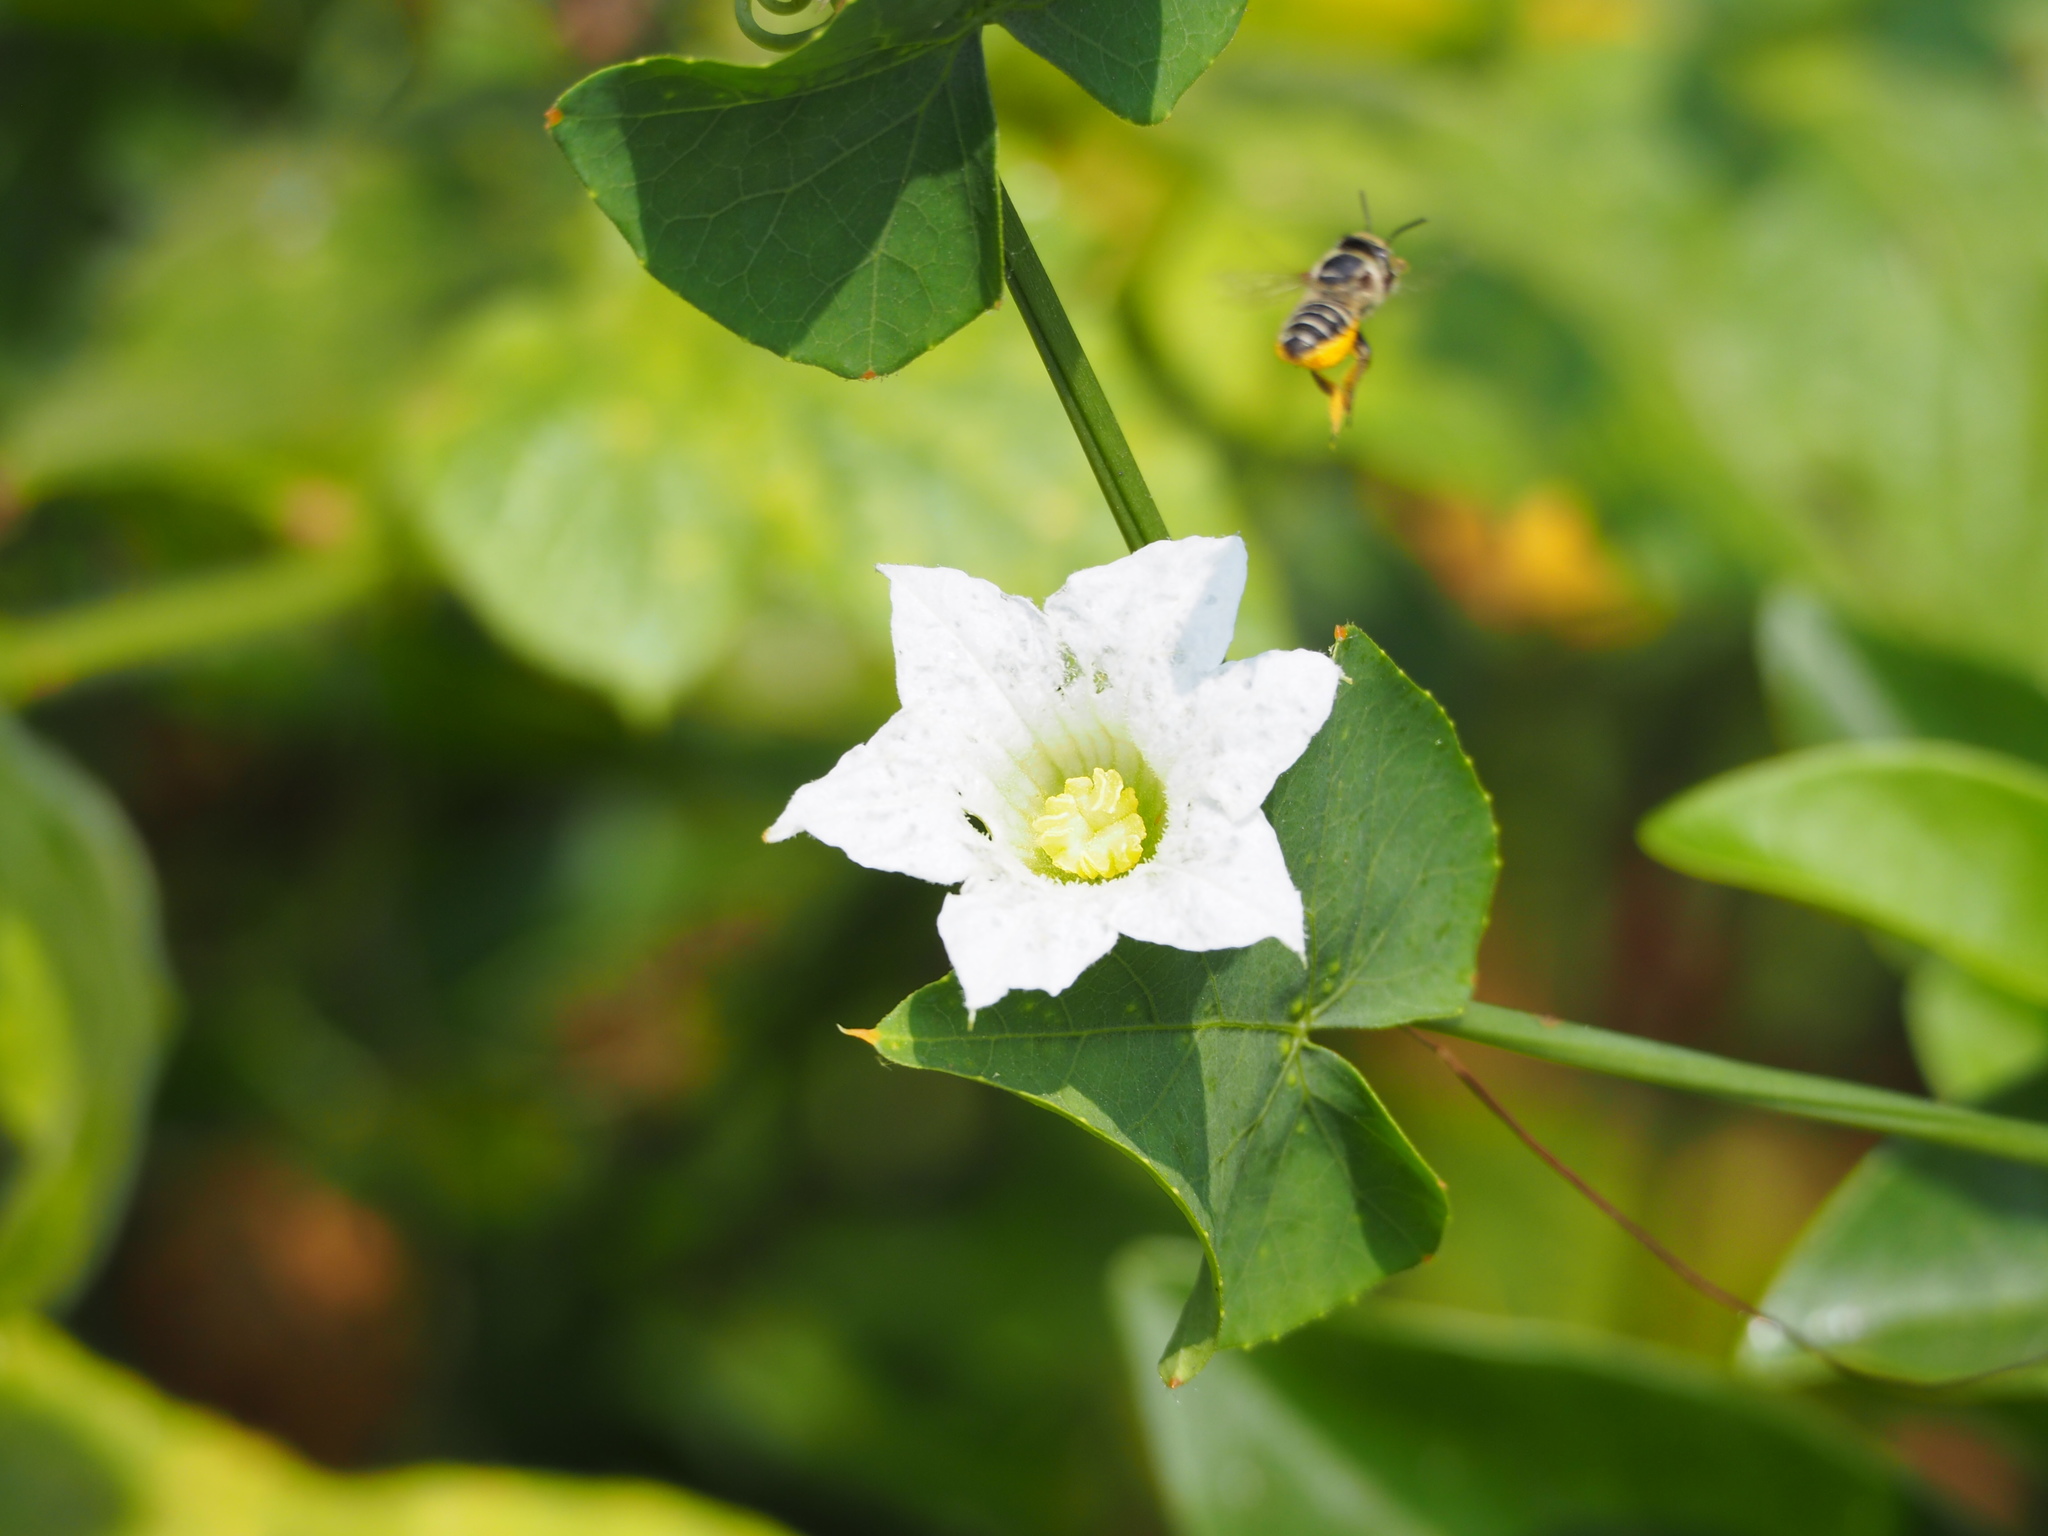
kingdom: Plantae
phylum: Tracheophyta
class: Magnoliopsida
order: Cucurbitales
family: Cucurbitaceae
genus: Coccinia
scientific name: Coccinia grandis
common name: Ivy gourd
